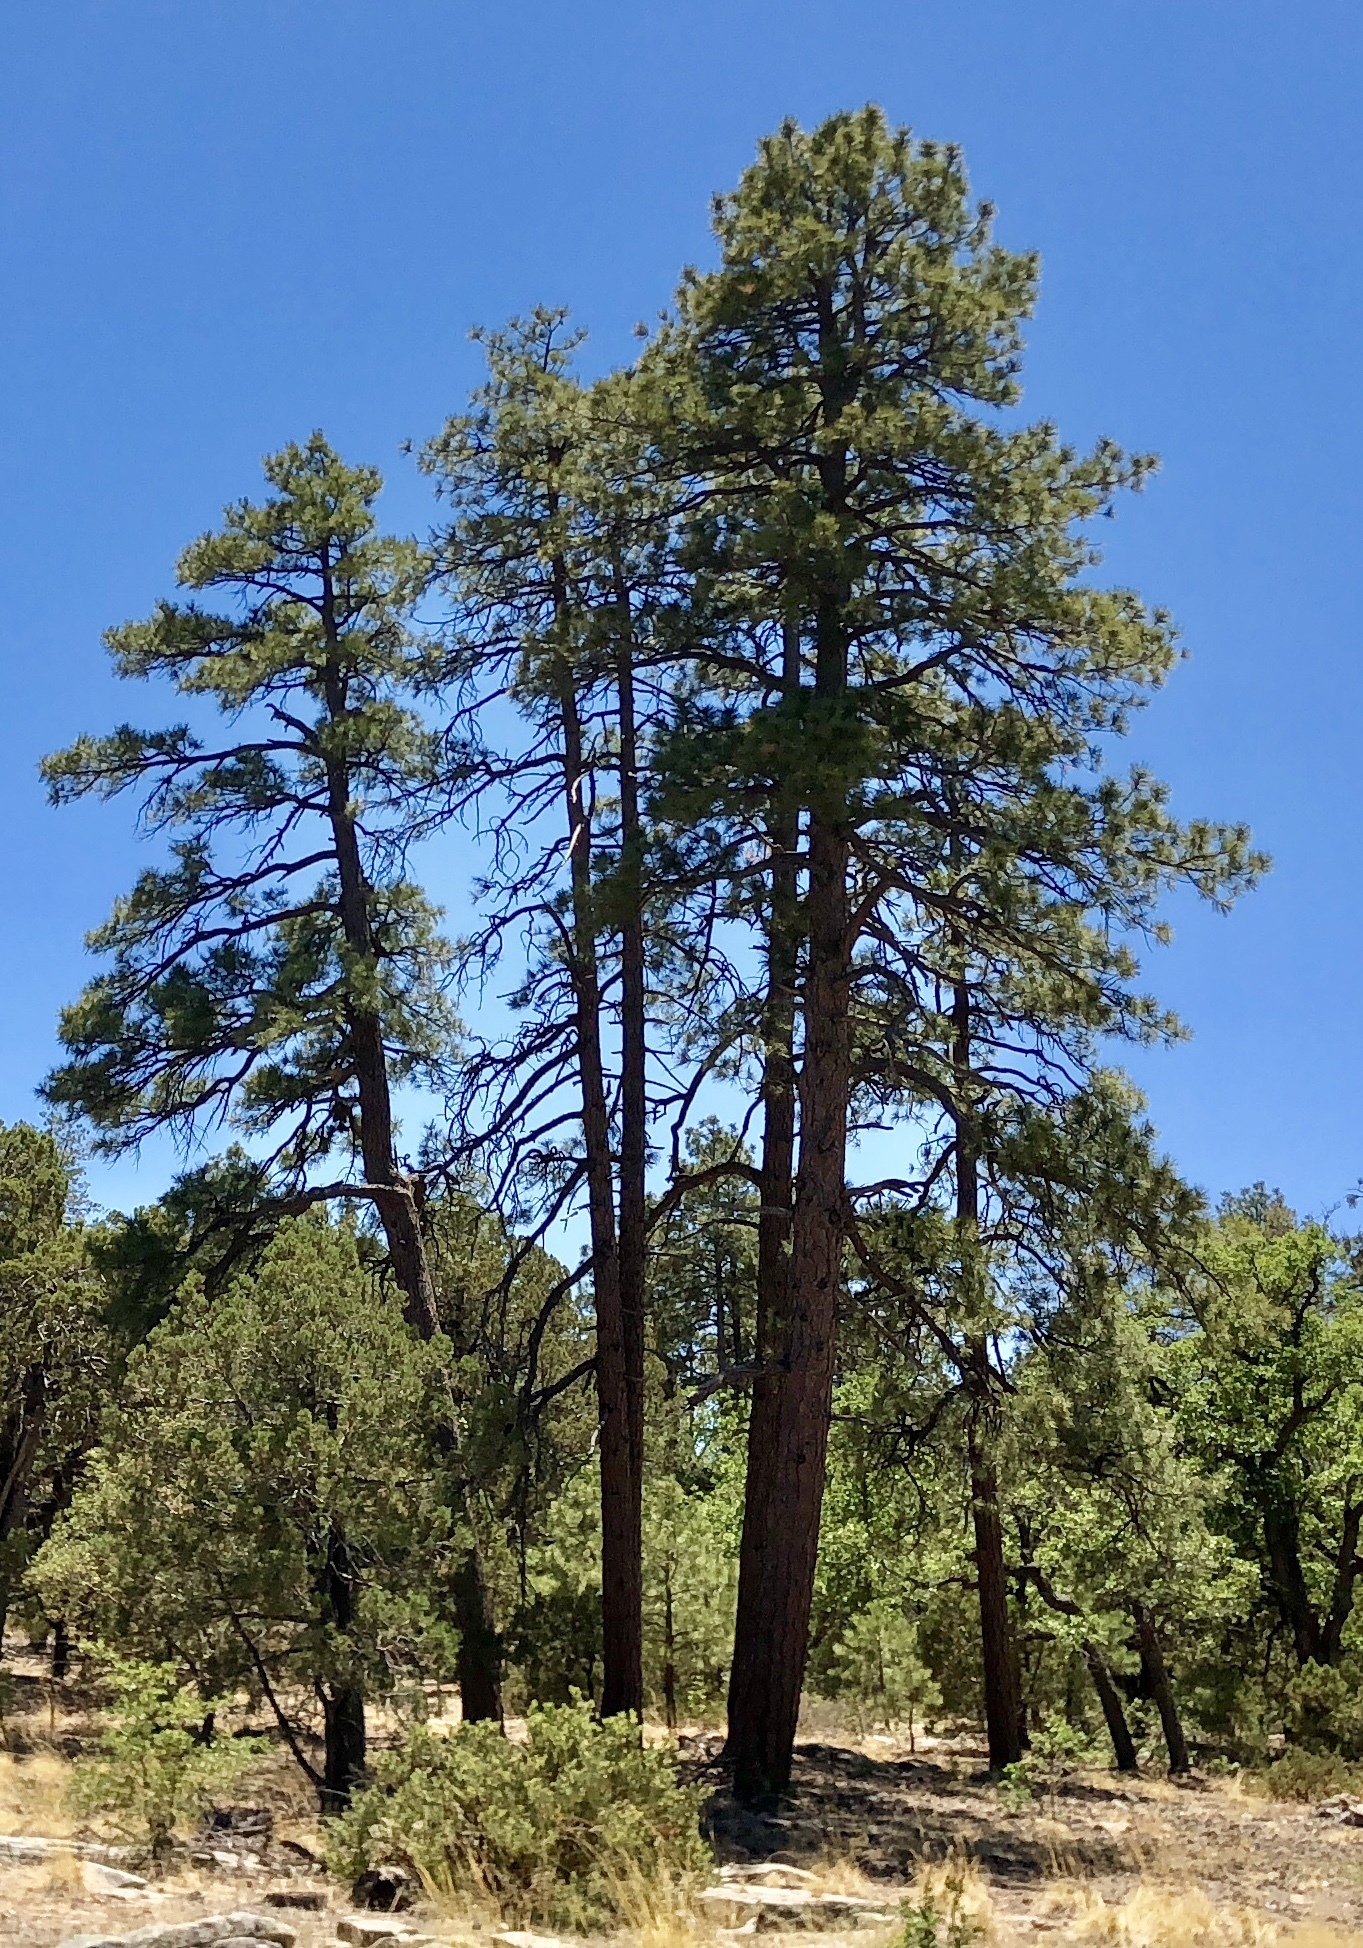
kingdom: Plantae
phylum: Tracheophyta
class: Pinopsida
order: Pinales
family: Pinaceae
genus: Pinus
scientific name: Pinus ponderosa
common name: Western yellow-pine
